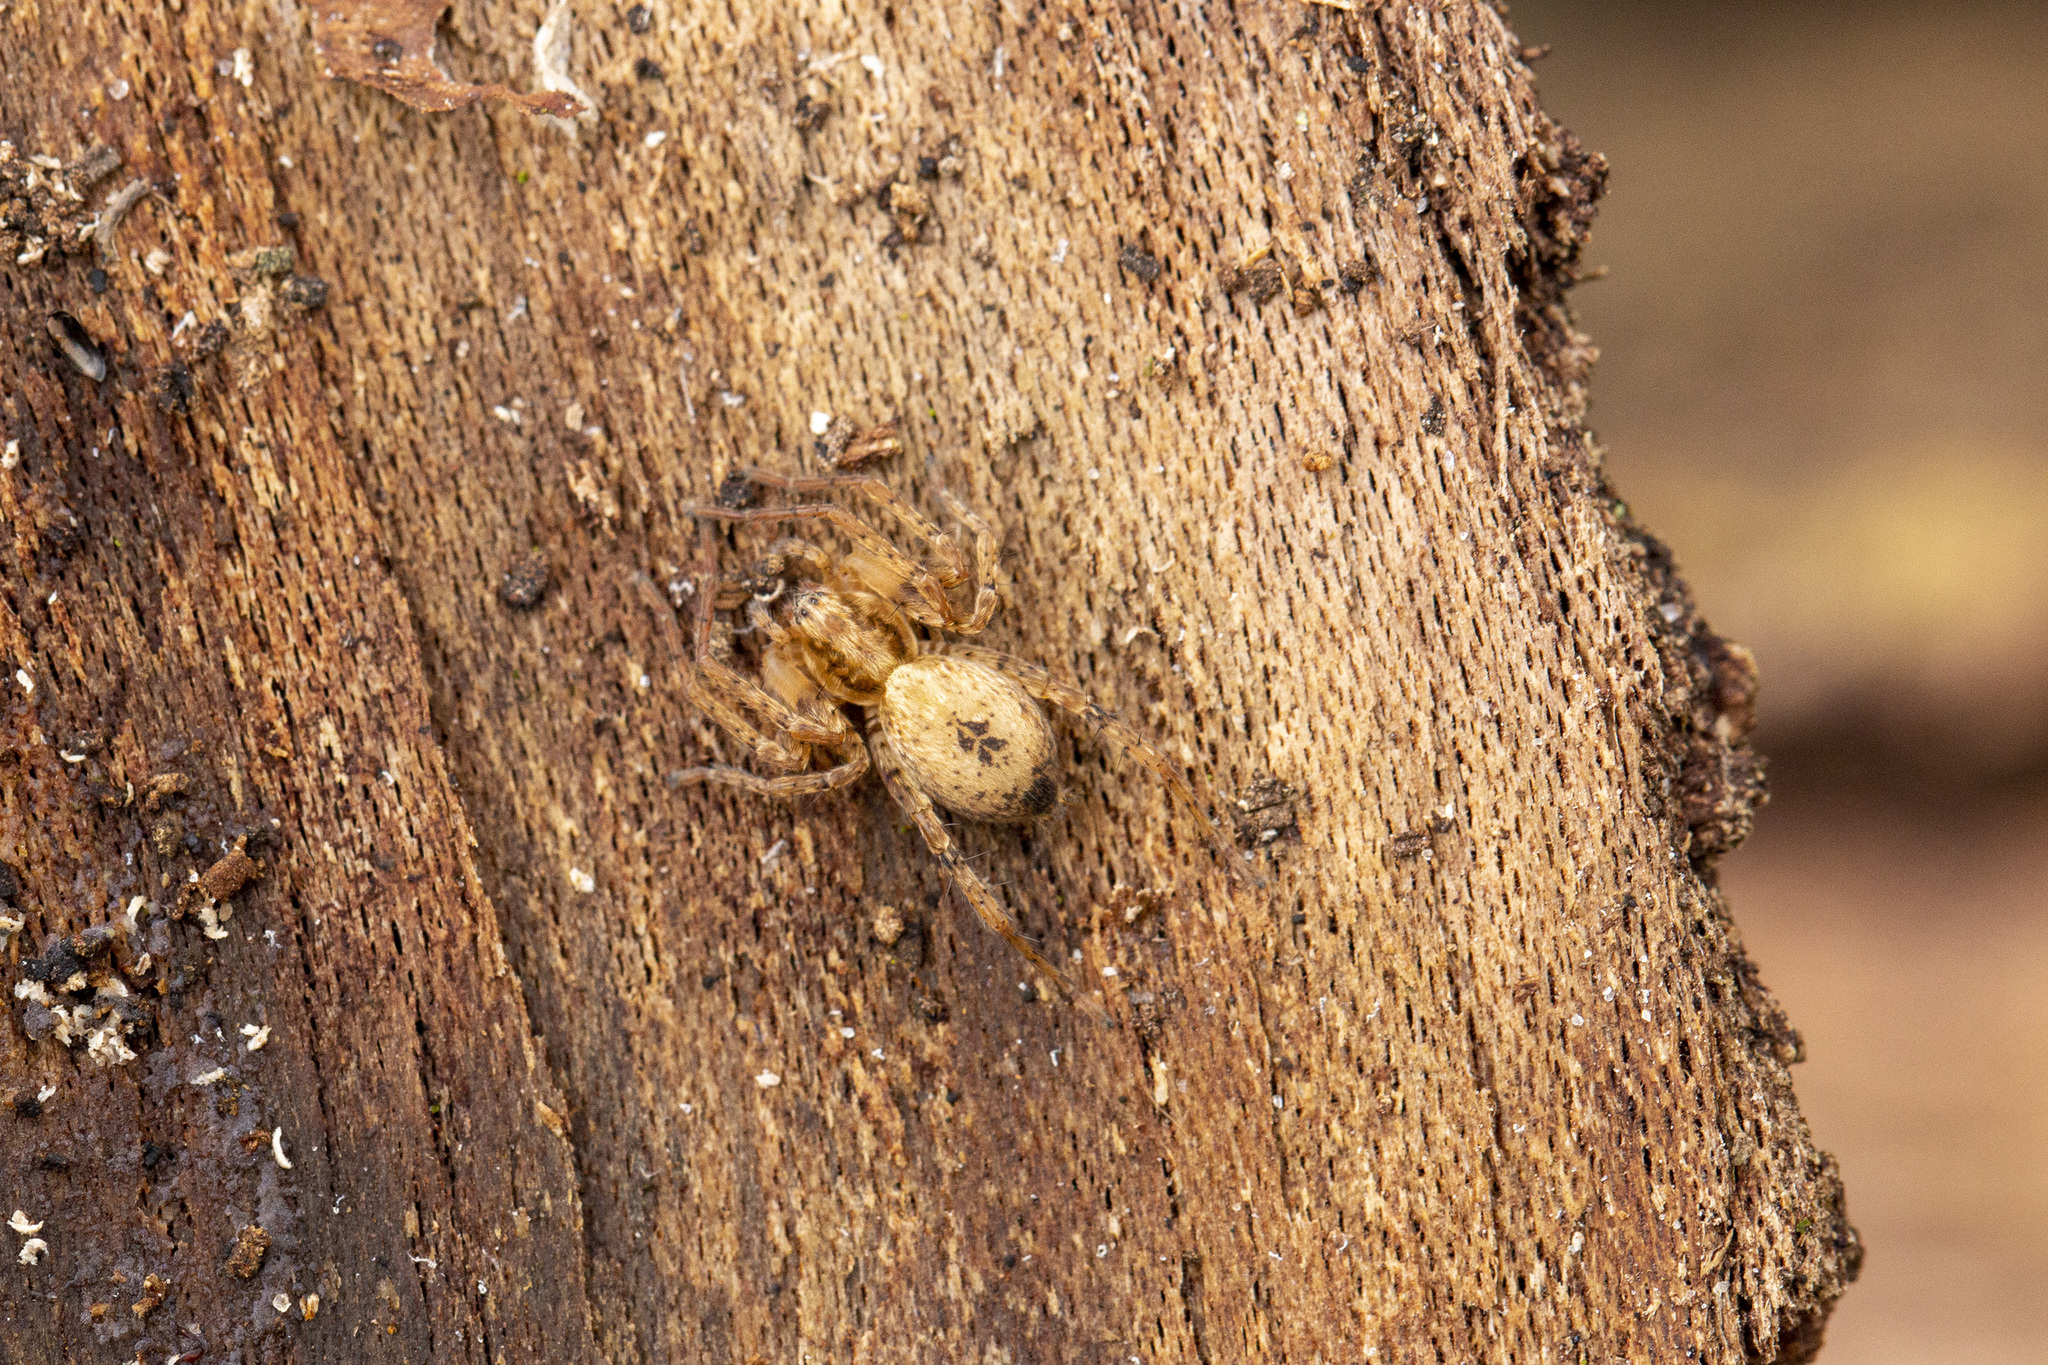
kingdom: Animalia
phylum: Arthropoda
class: Arachnida
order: Araneae
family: Anyphaenidae
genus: Anyphaena
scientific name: Anyphaena accentuata
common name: Buzzing spider
